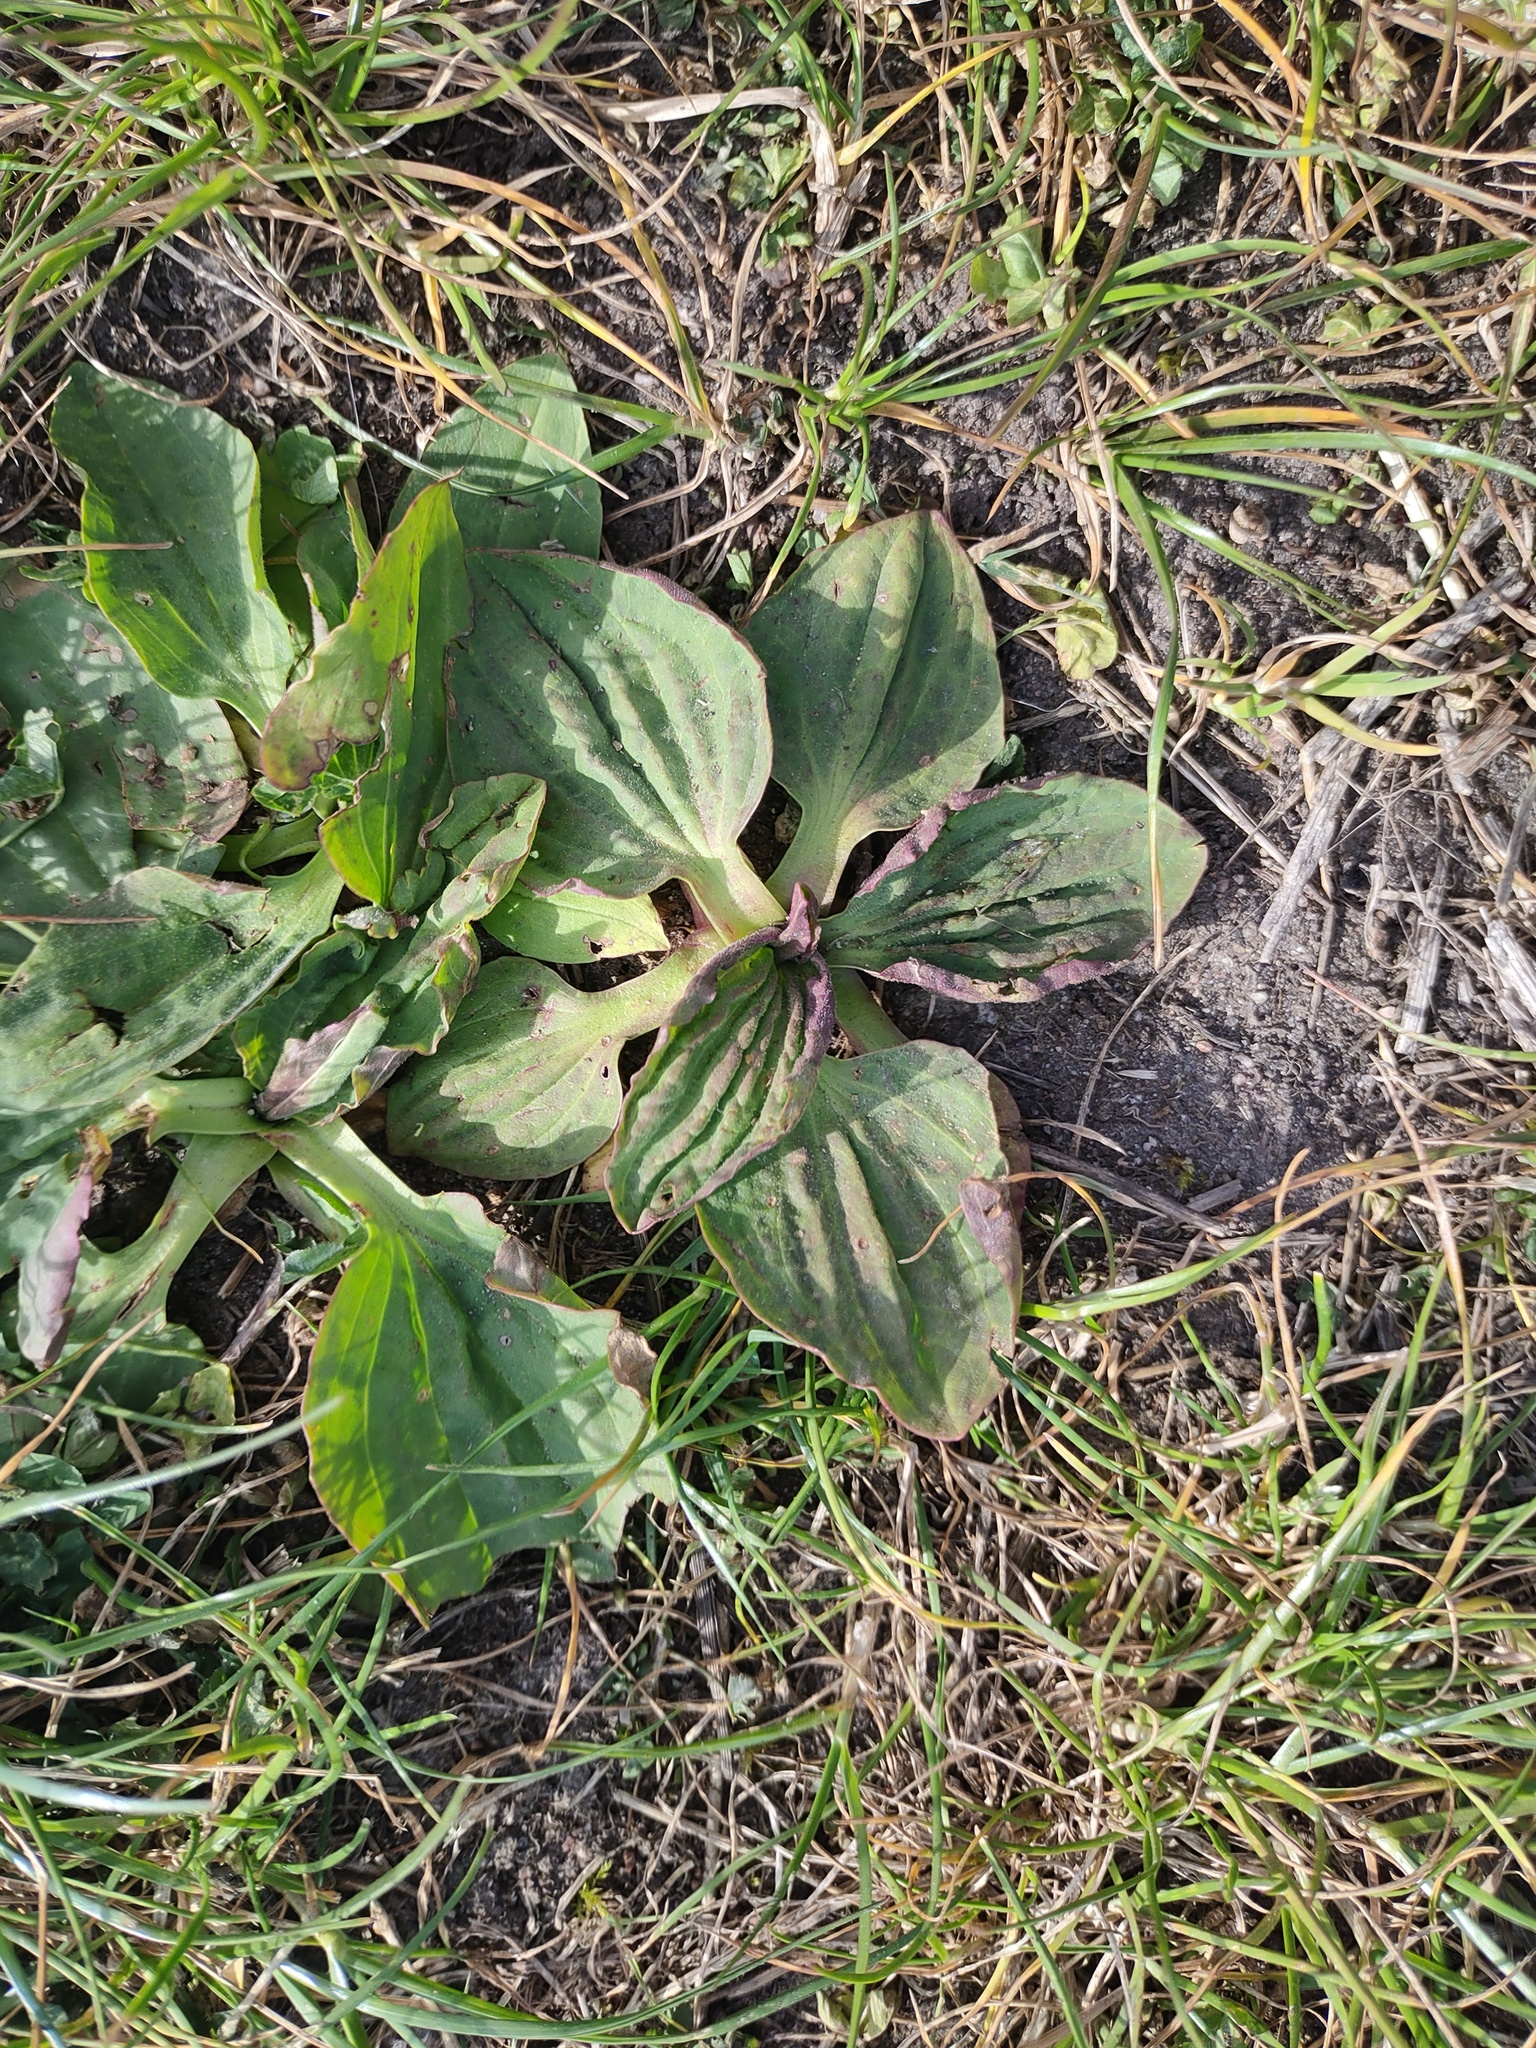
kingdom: Plantae
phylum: Tracheophyta
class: Magnoliopsida
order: Lamiales
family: Plantaginaceae
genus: Plantago
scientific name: Plantago major
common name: Common plantain
